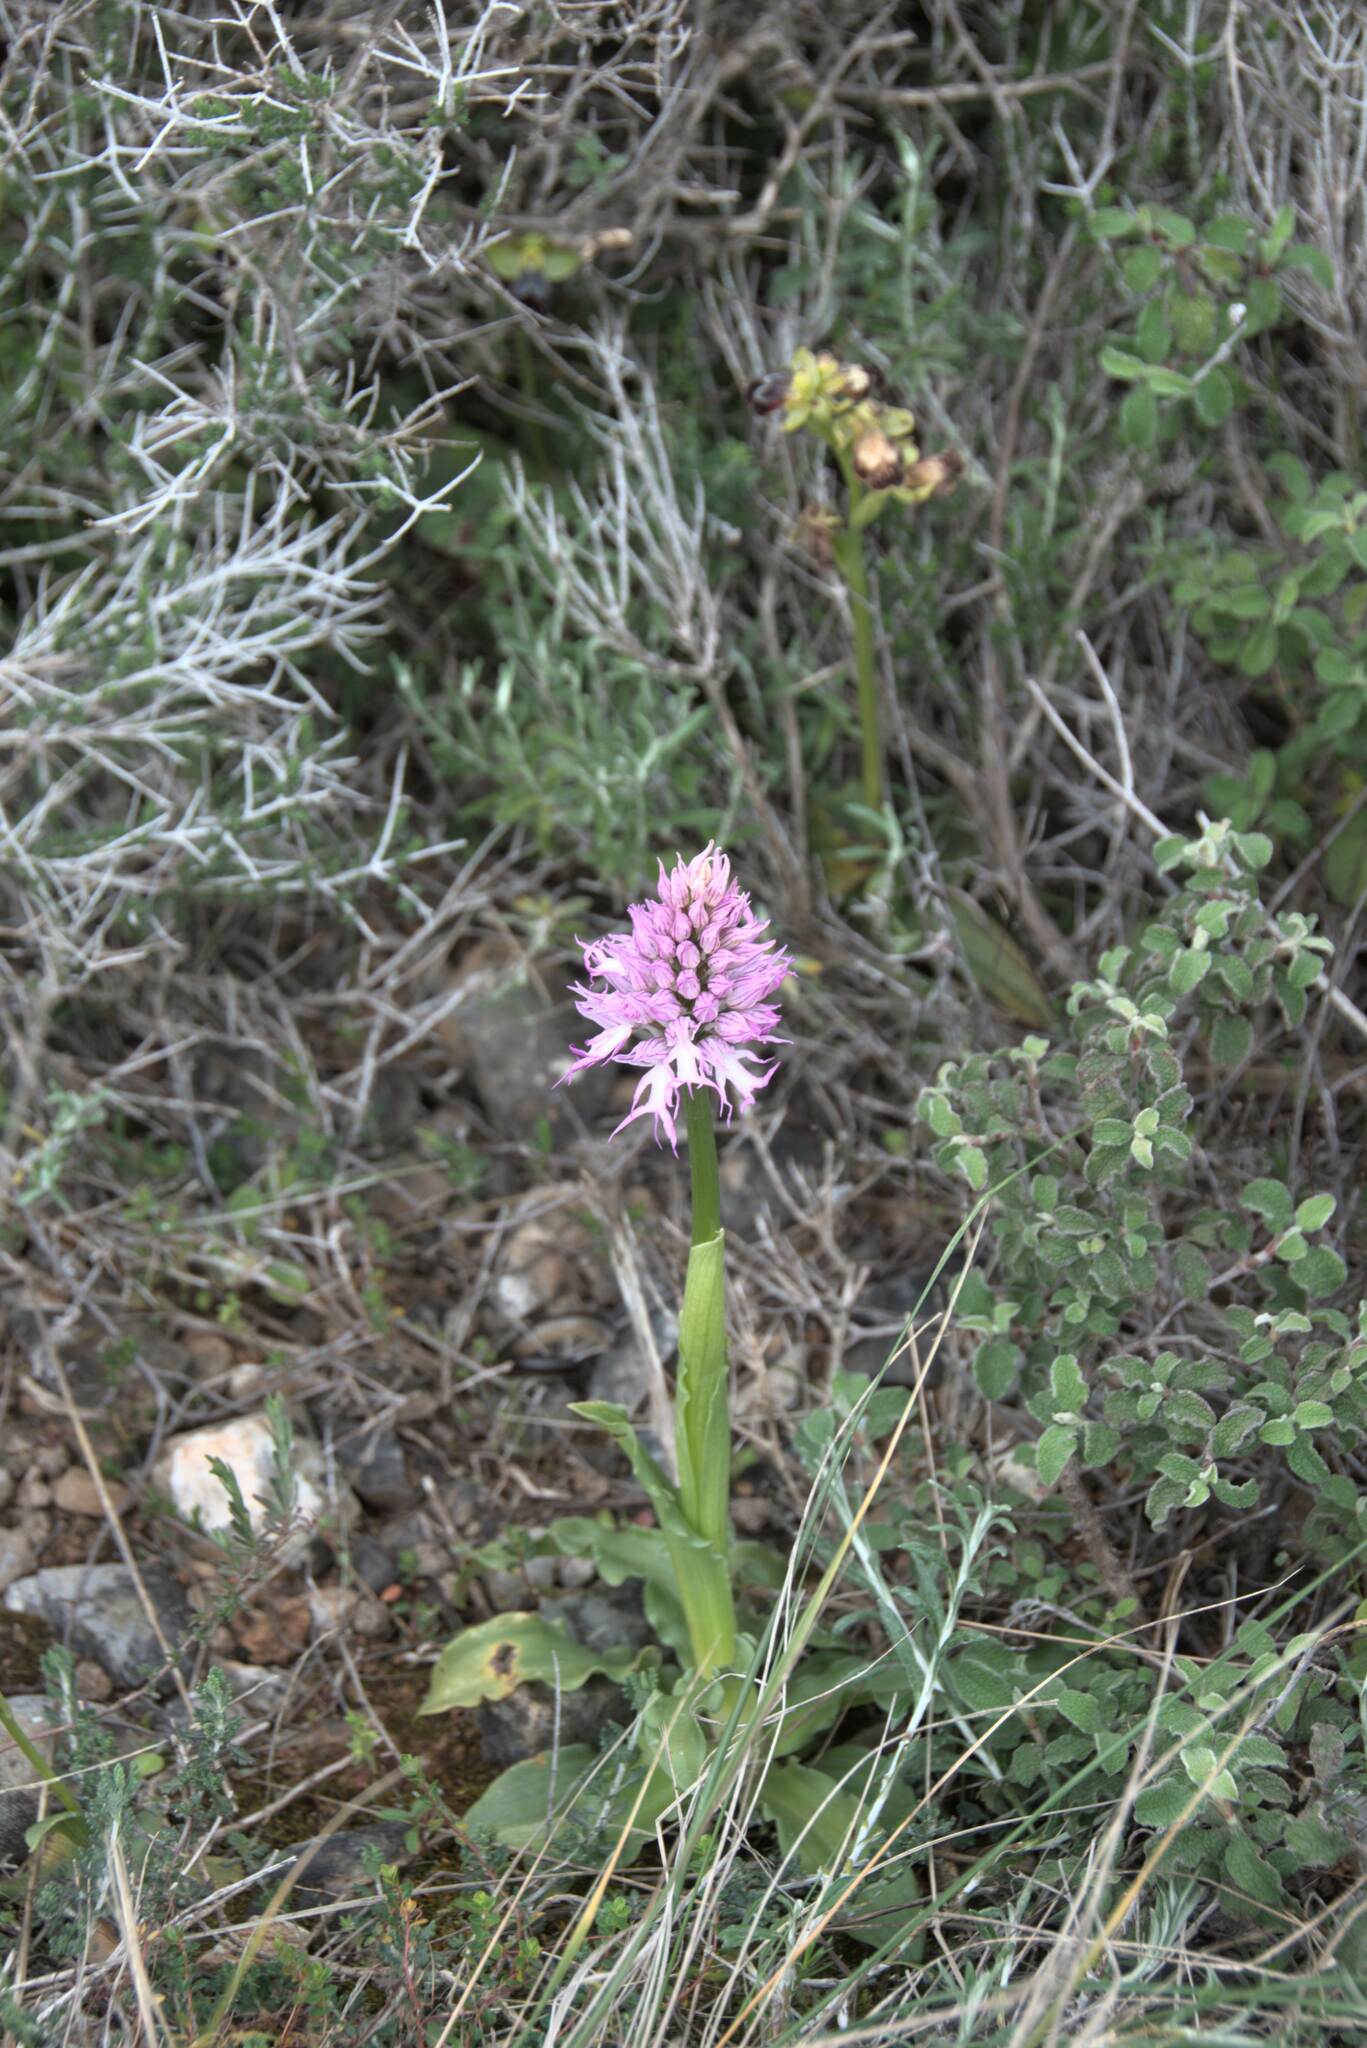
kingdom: Plantae
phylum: Tracheophyta
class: Liliopsida
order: Asparagales
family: Orchidaceae
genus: Orchis
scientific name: Orchis italica
